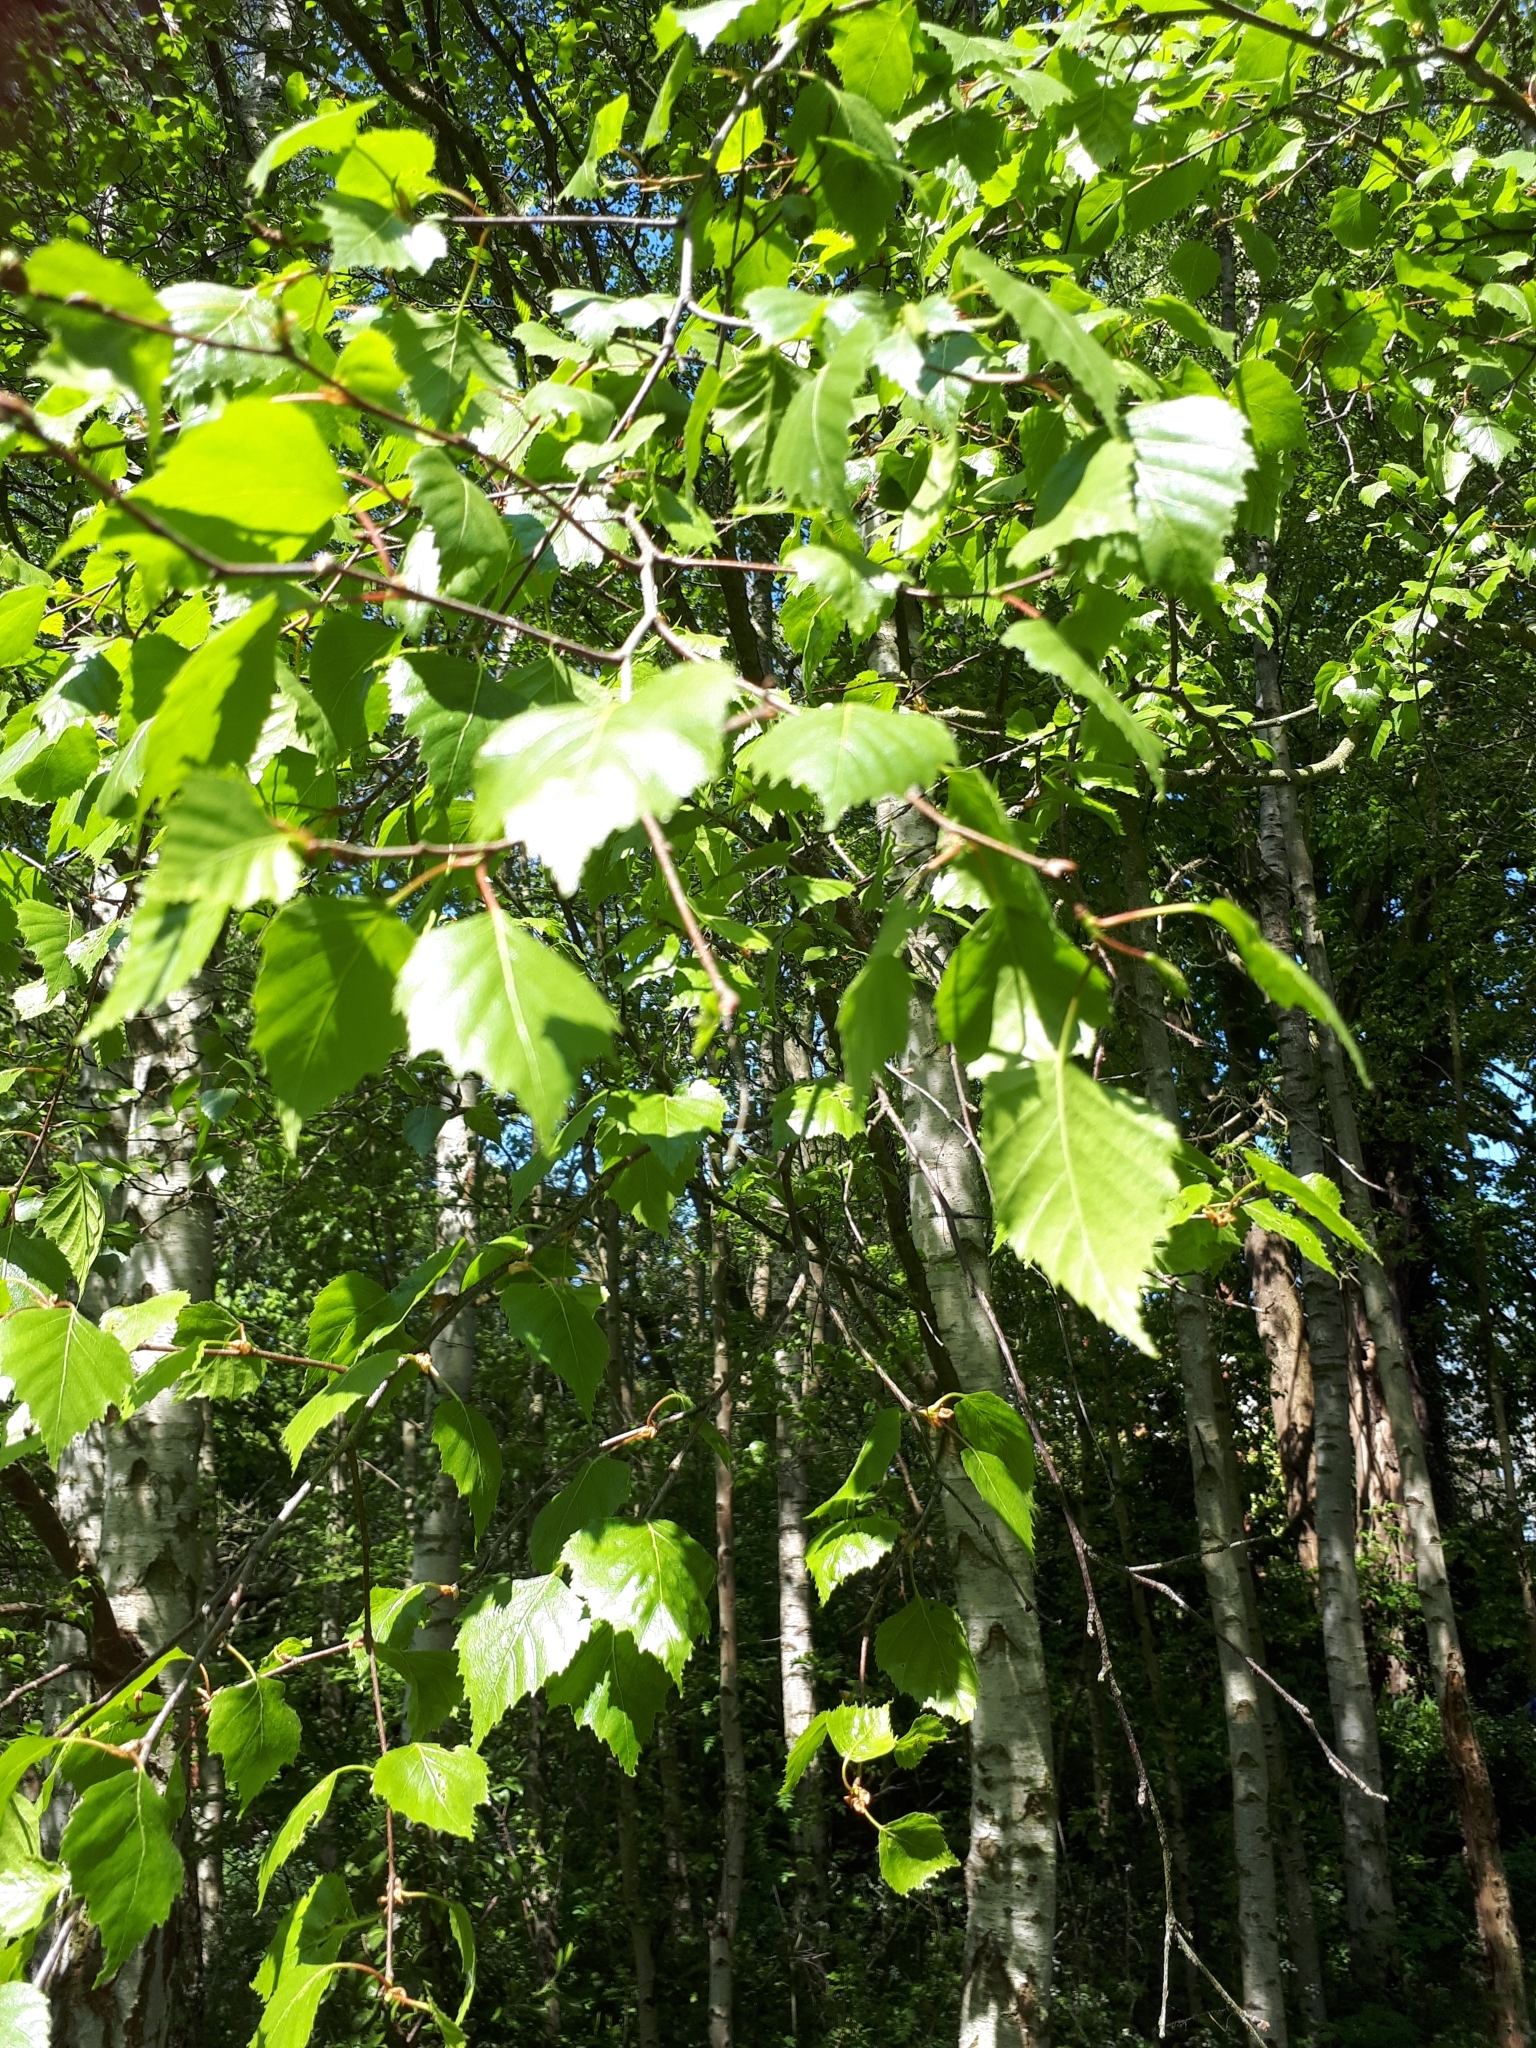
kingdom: Plantae
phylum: Tracheophyta
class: Magnoliopsida
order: Fagales
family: Betulaceae
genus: Betula
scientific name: Betula pendula
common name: Silver birch
